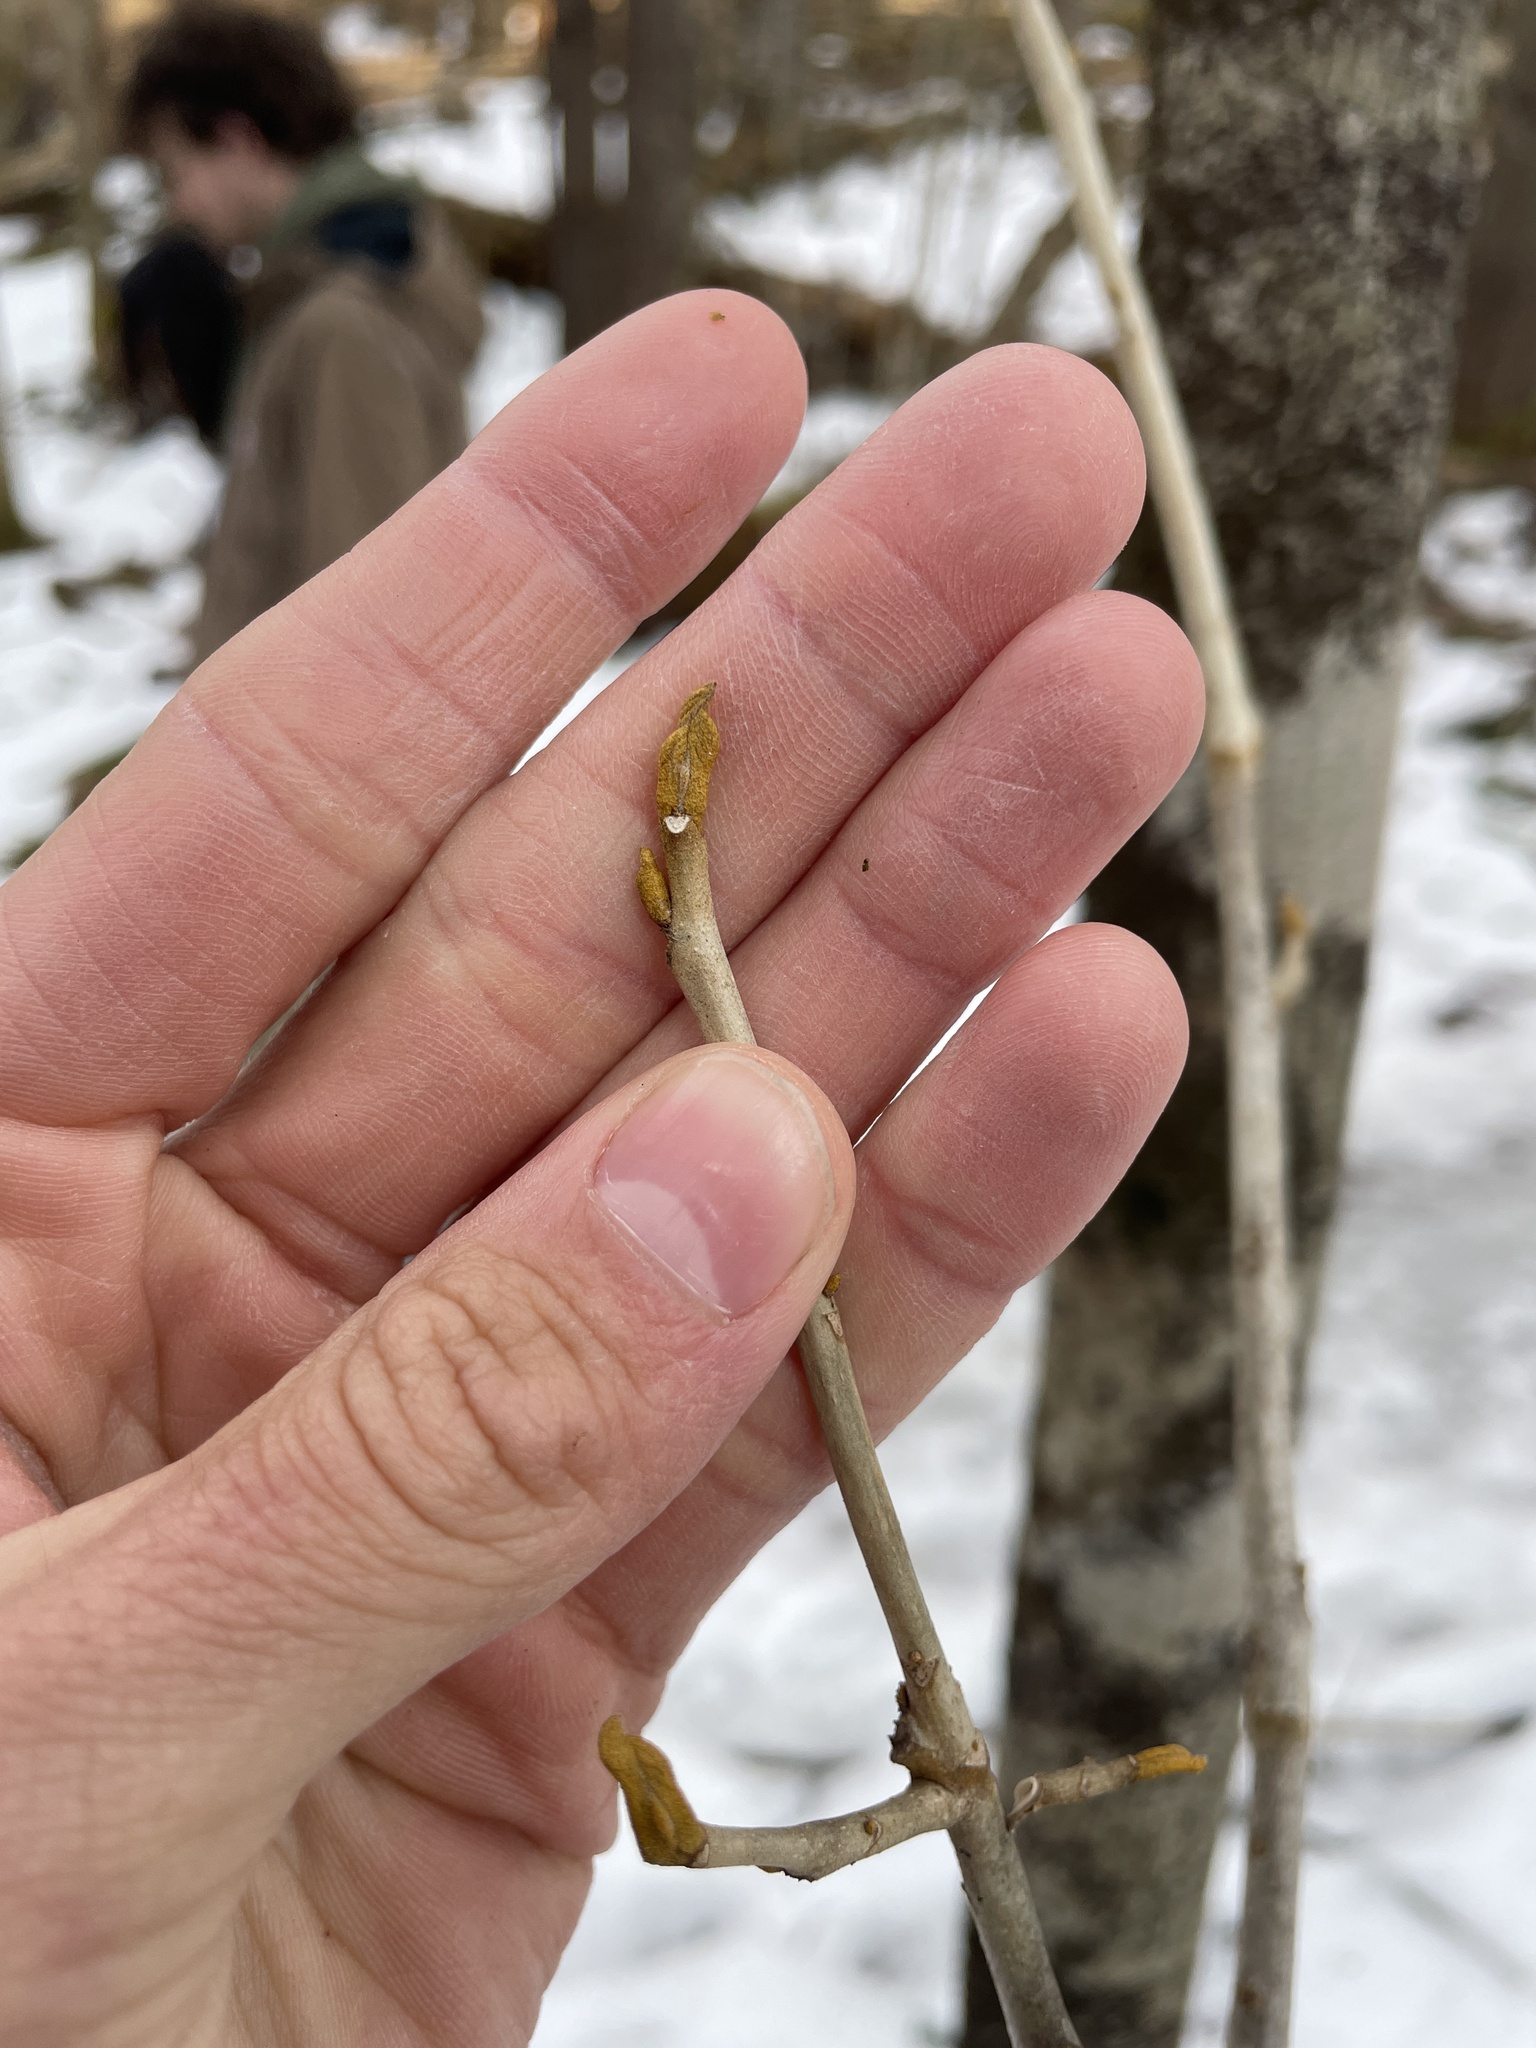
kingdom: Plantae
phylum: Tracheophyta
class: Magnoliopsida
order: Fagales
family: Juglandaceae
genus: Carya
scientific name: Carya cordiformis
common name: Bitternut hickory
